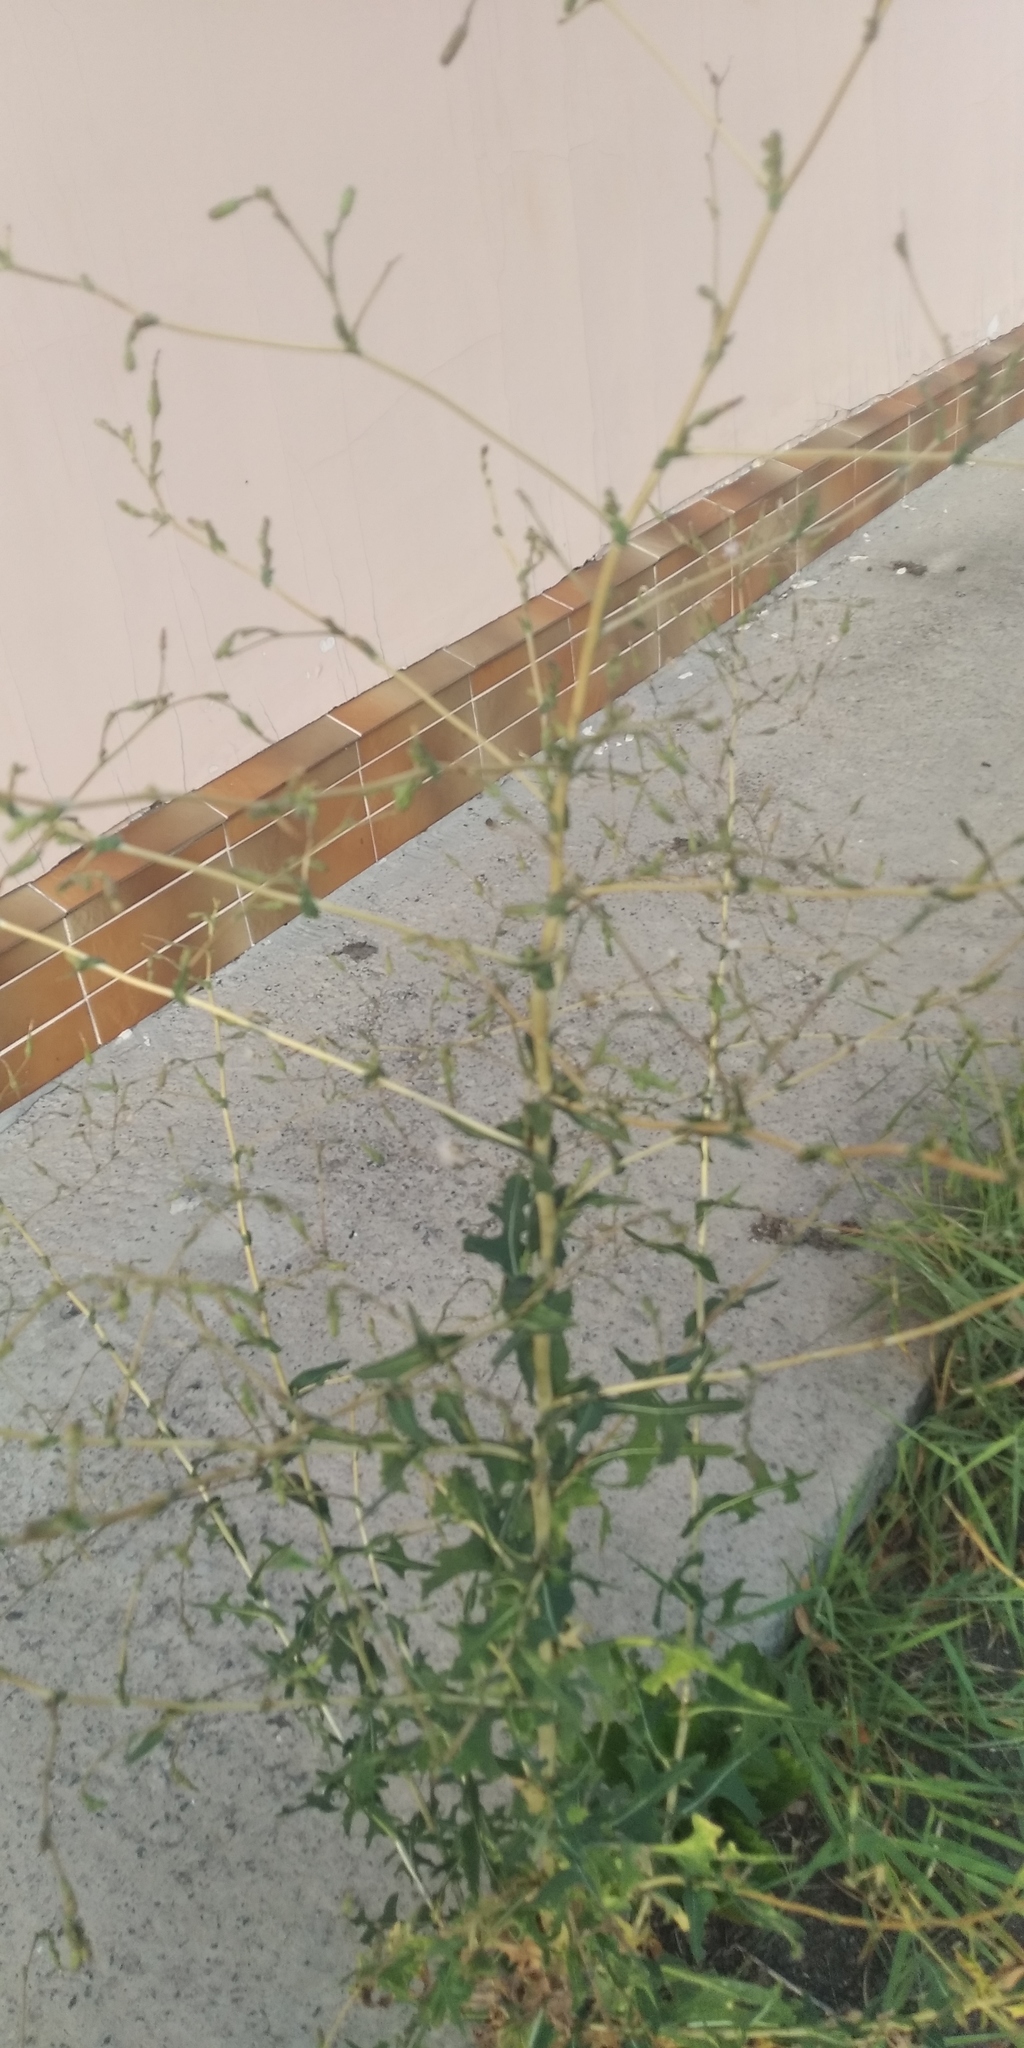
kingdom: Plantae
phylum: Tracheophyta
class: Magnoliopsida
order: Asterales
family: Asteraceae
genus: Lactuca
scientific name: Lactuca serriola
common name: Prickly lettuce
